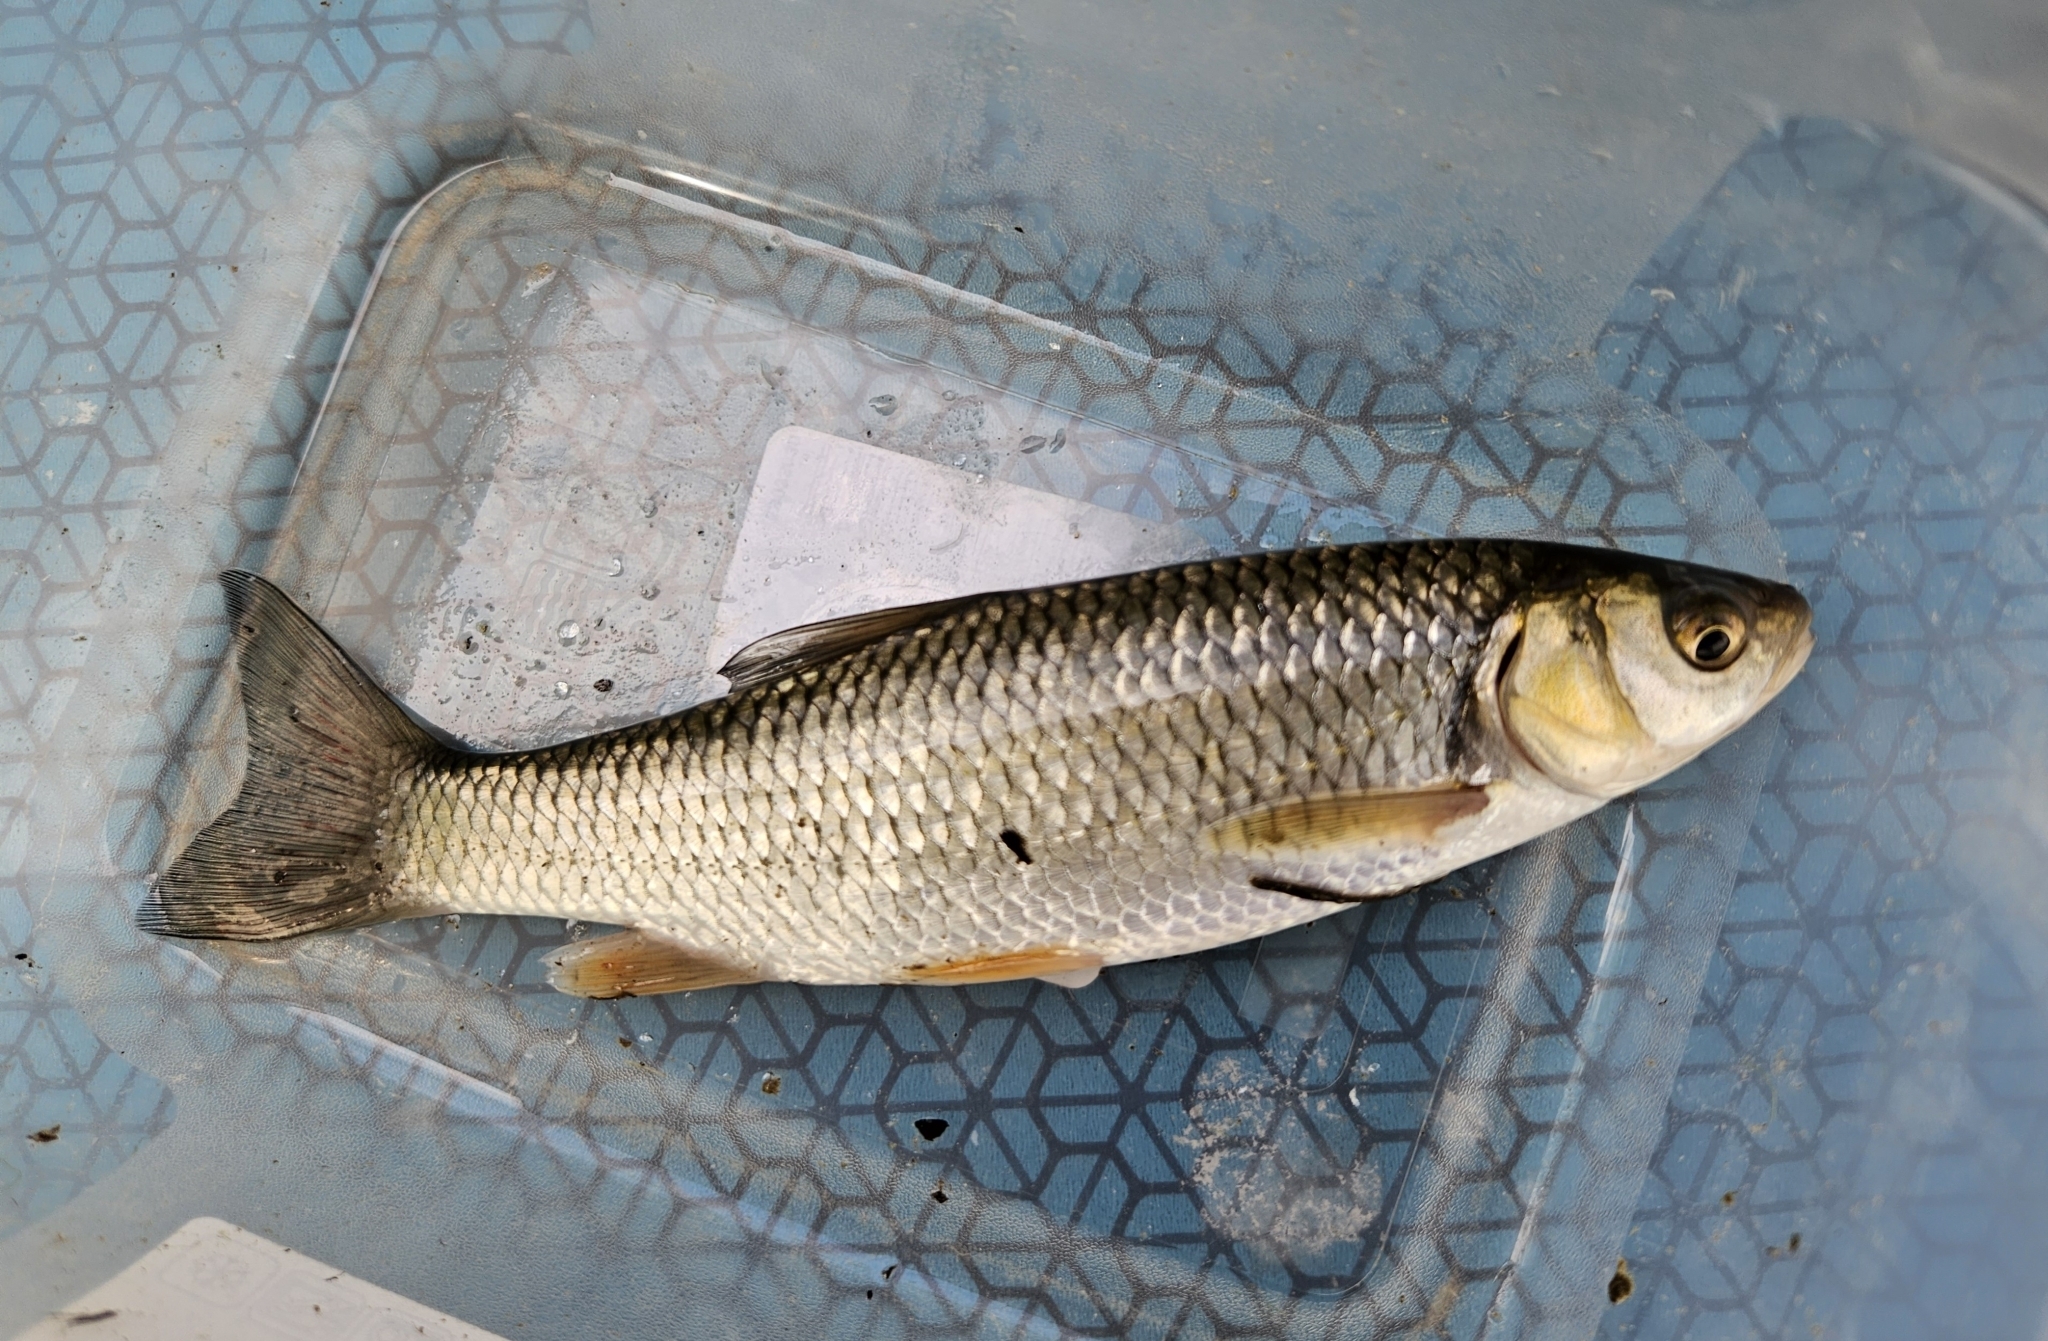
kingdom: Animalia
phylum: Chordata
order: Cypriniformes
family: Cyprinidae
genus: Squalius
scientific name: Squalius cephalus
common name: Chub
